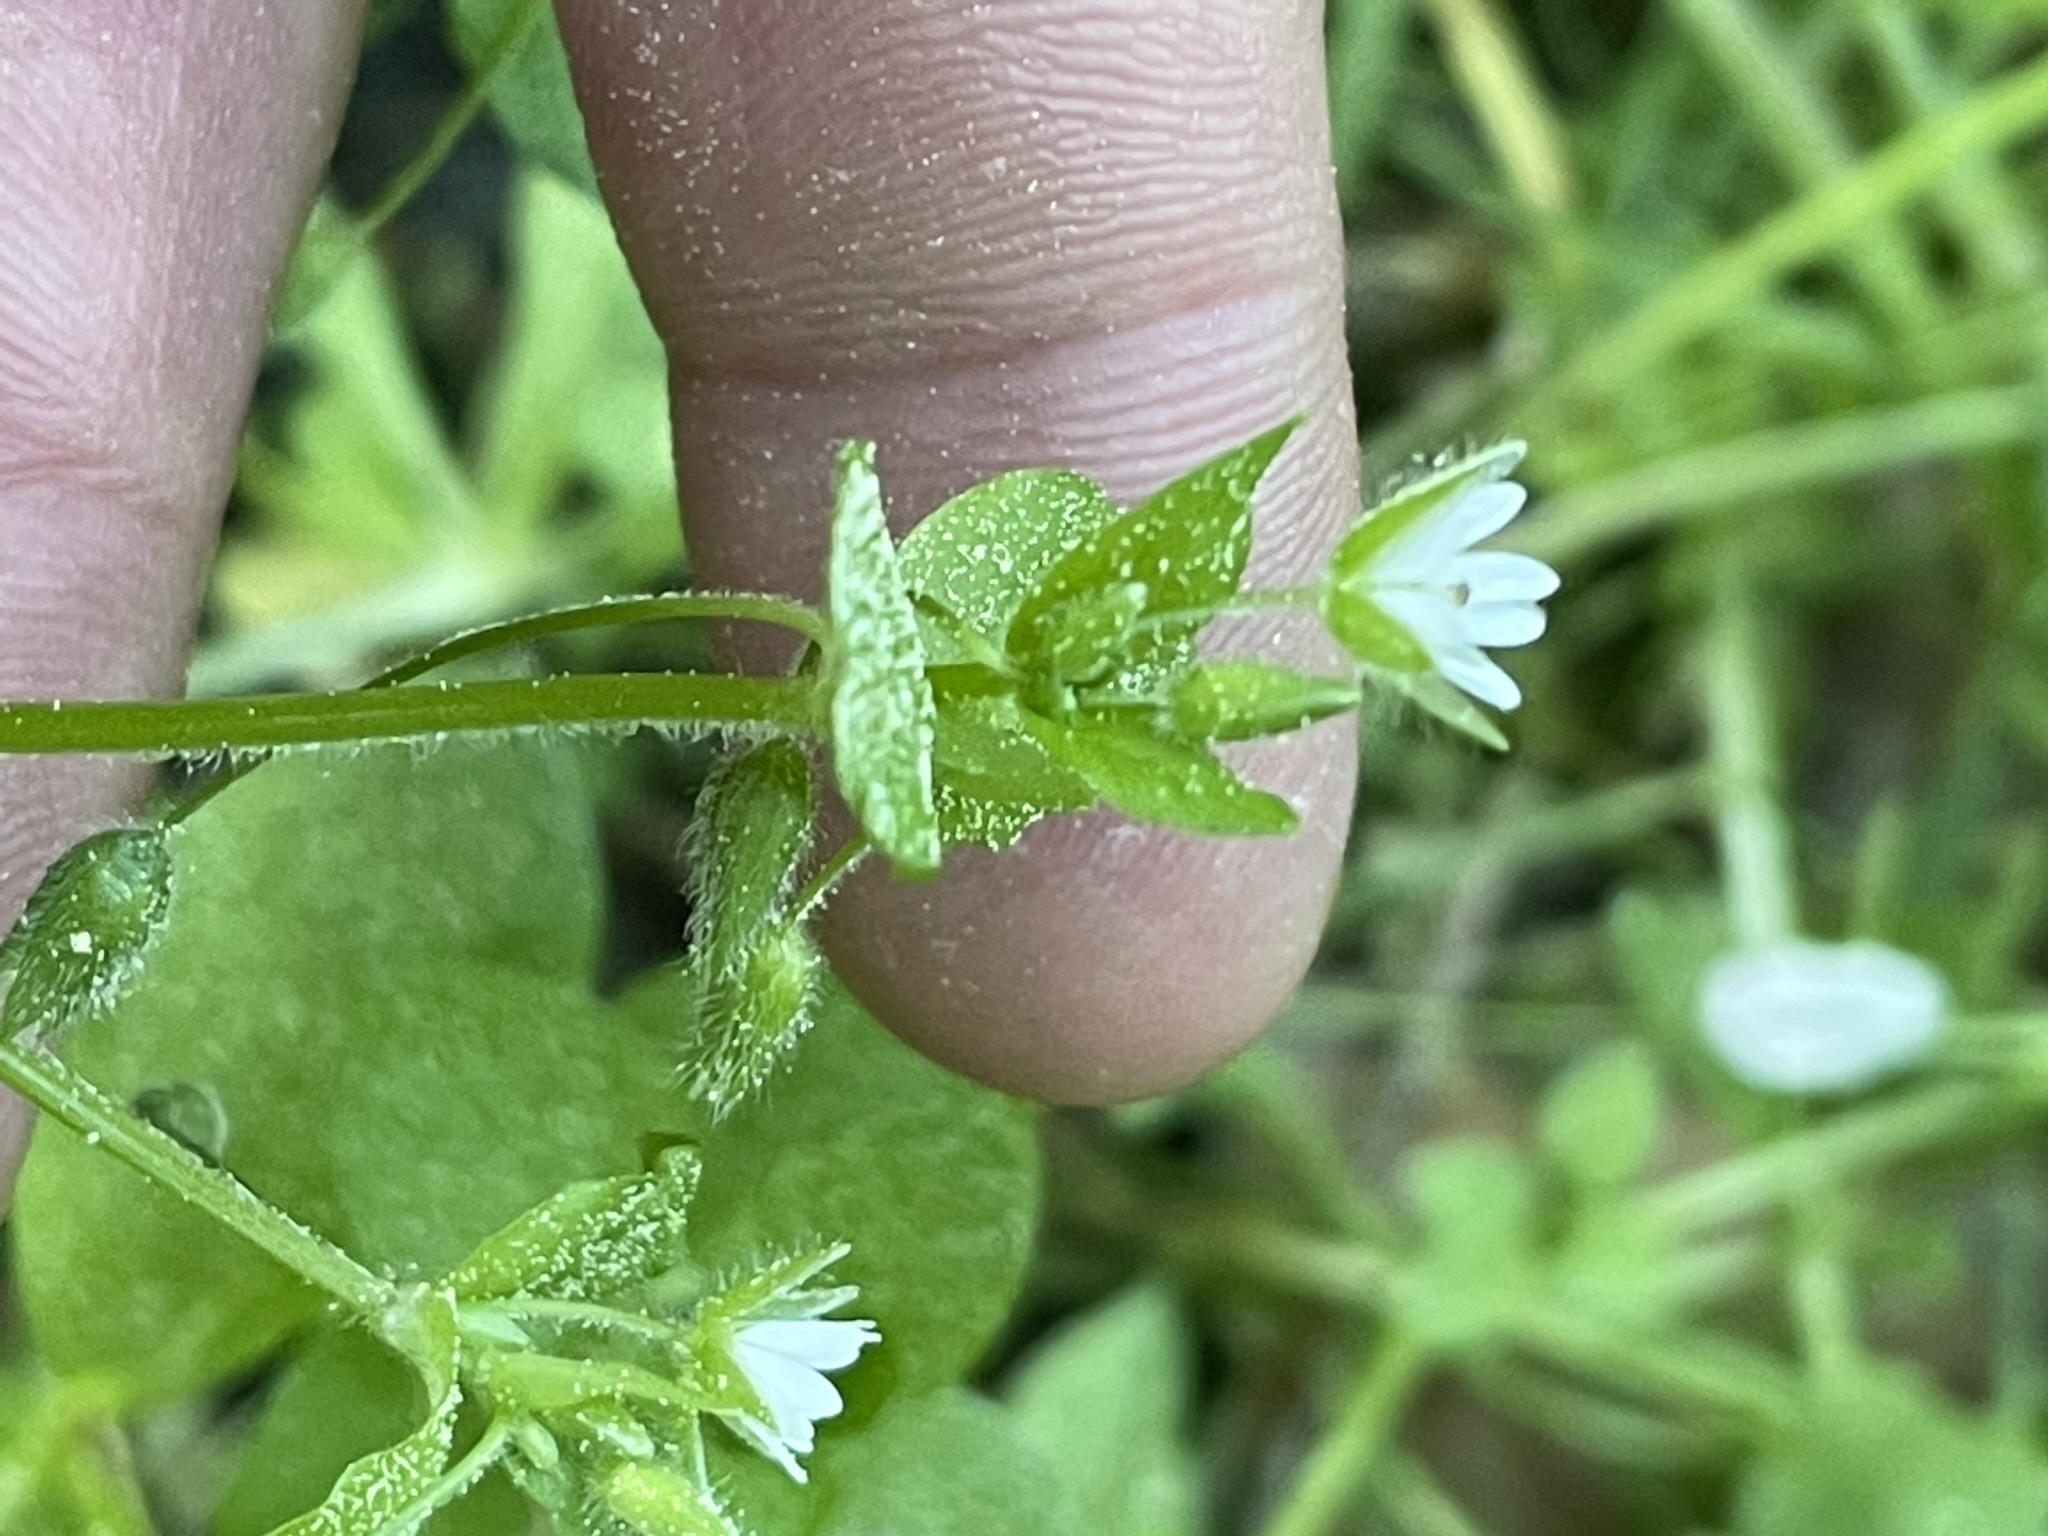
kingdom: Plantae
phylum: Tracheophyta
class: Magnoliopsida
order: Caryophyllales
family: Caryophyllaceae
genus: Stellaria
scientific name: Stellaria media
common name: Common chickweed
